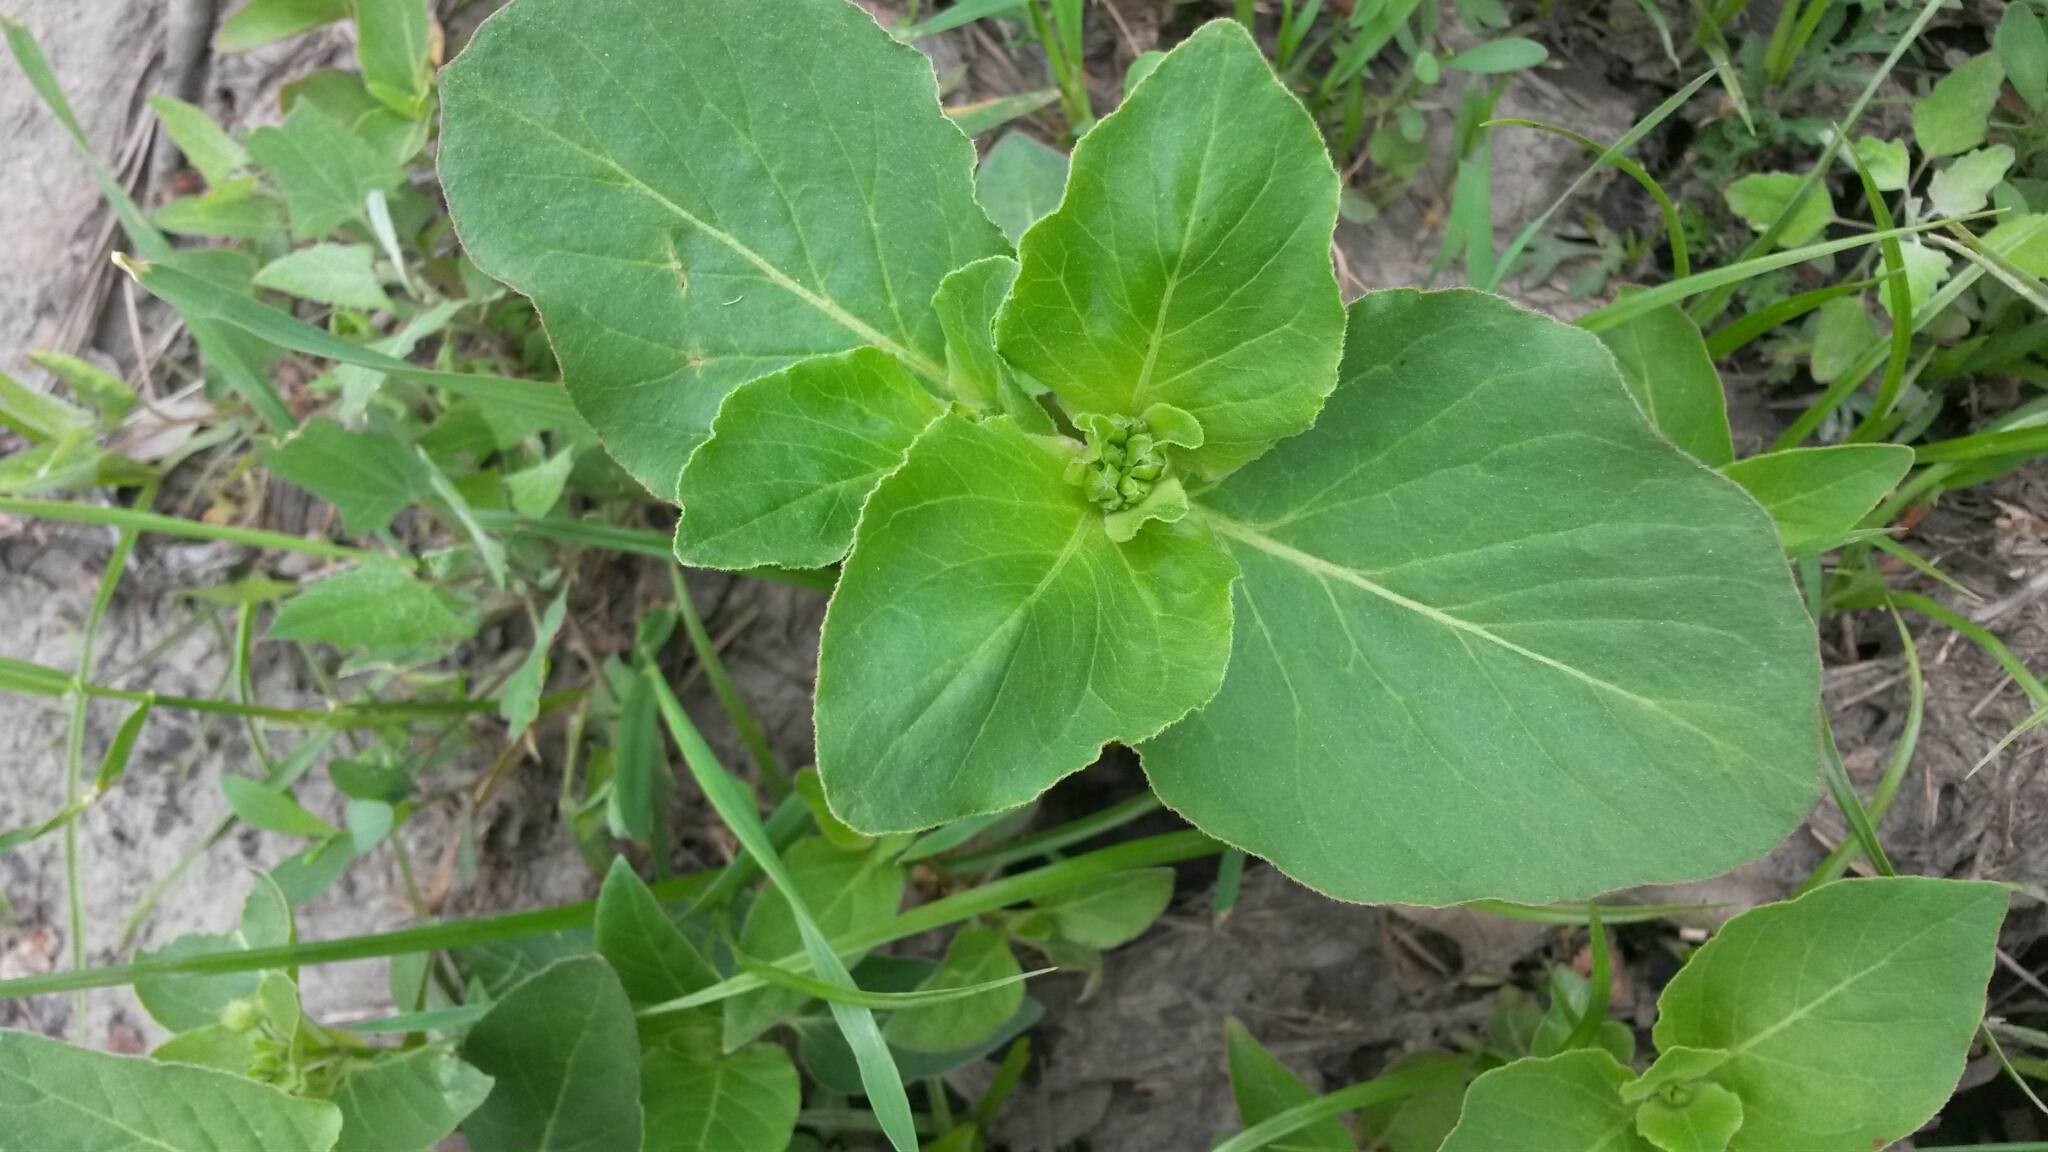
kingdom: Plantae
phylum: Tracheophyta
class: Magnoliopsida
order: Caryophyllales
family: Nyctaginaceae
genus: Mirabilis
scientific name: Mirabilis nyctaginea
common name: Umbrella wort
